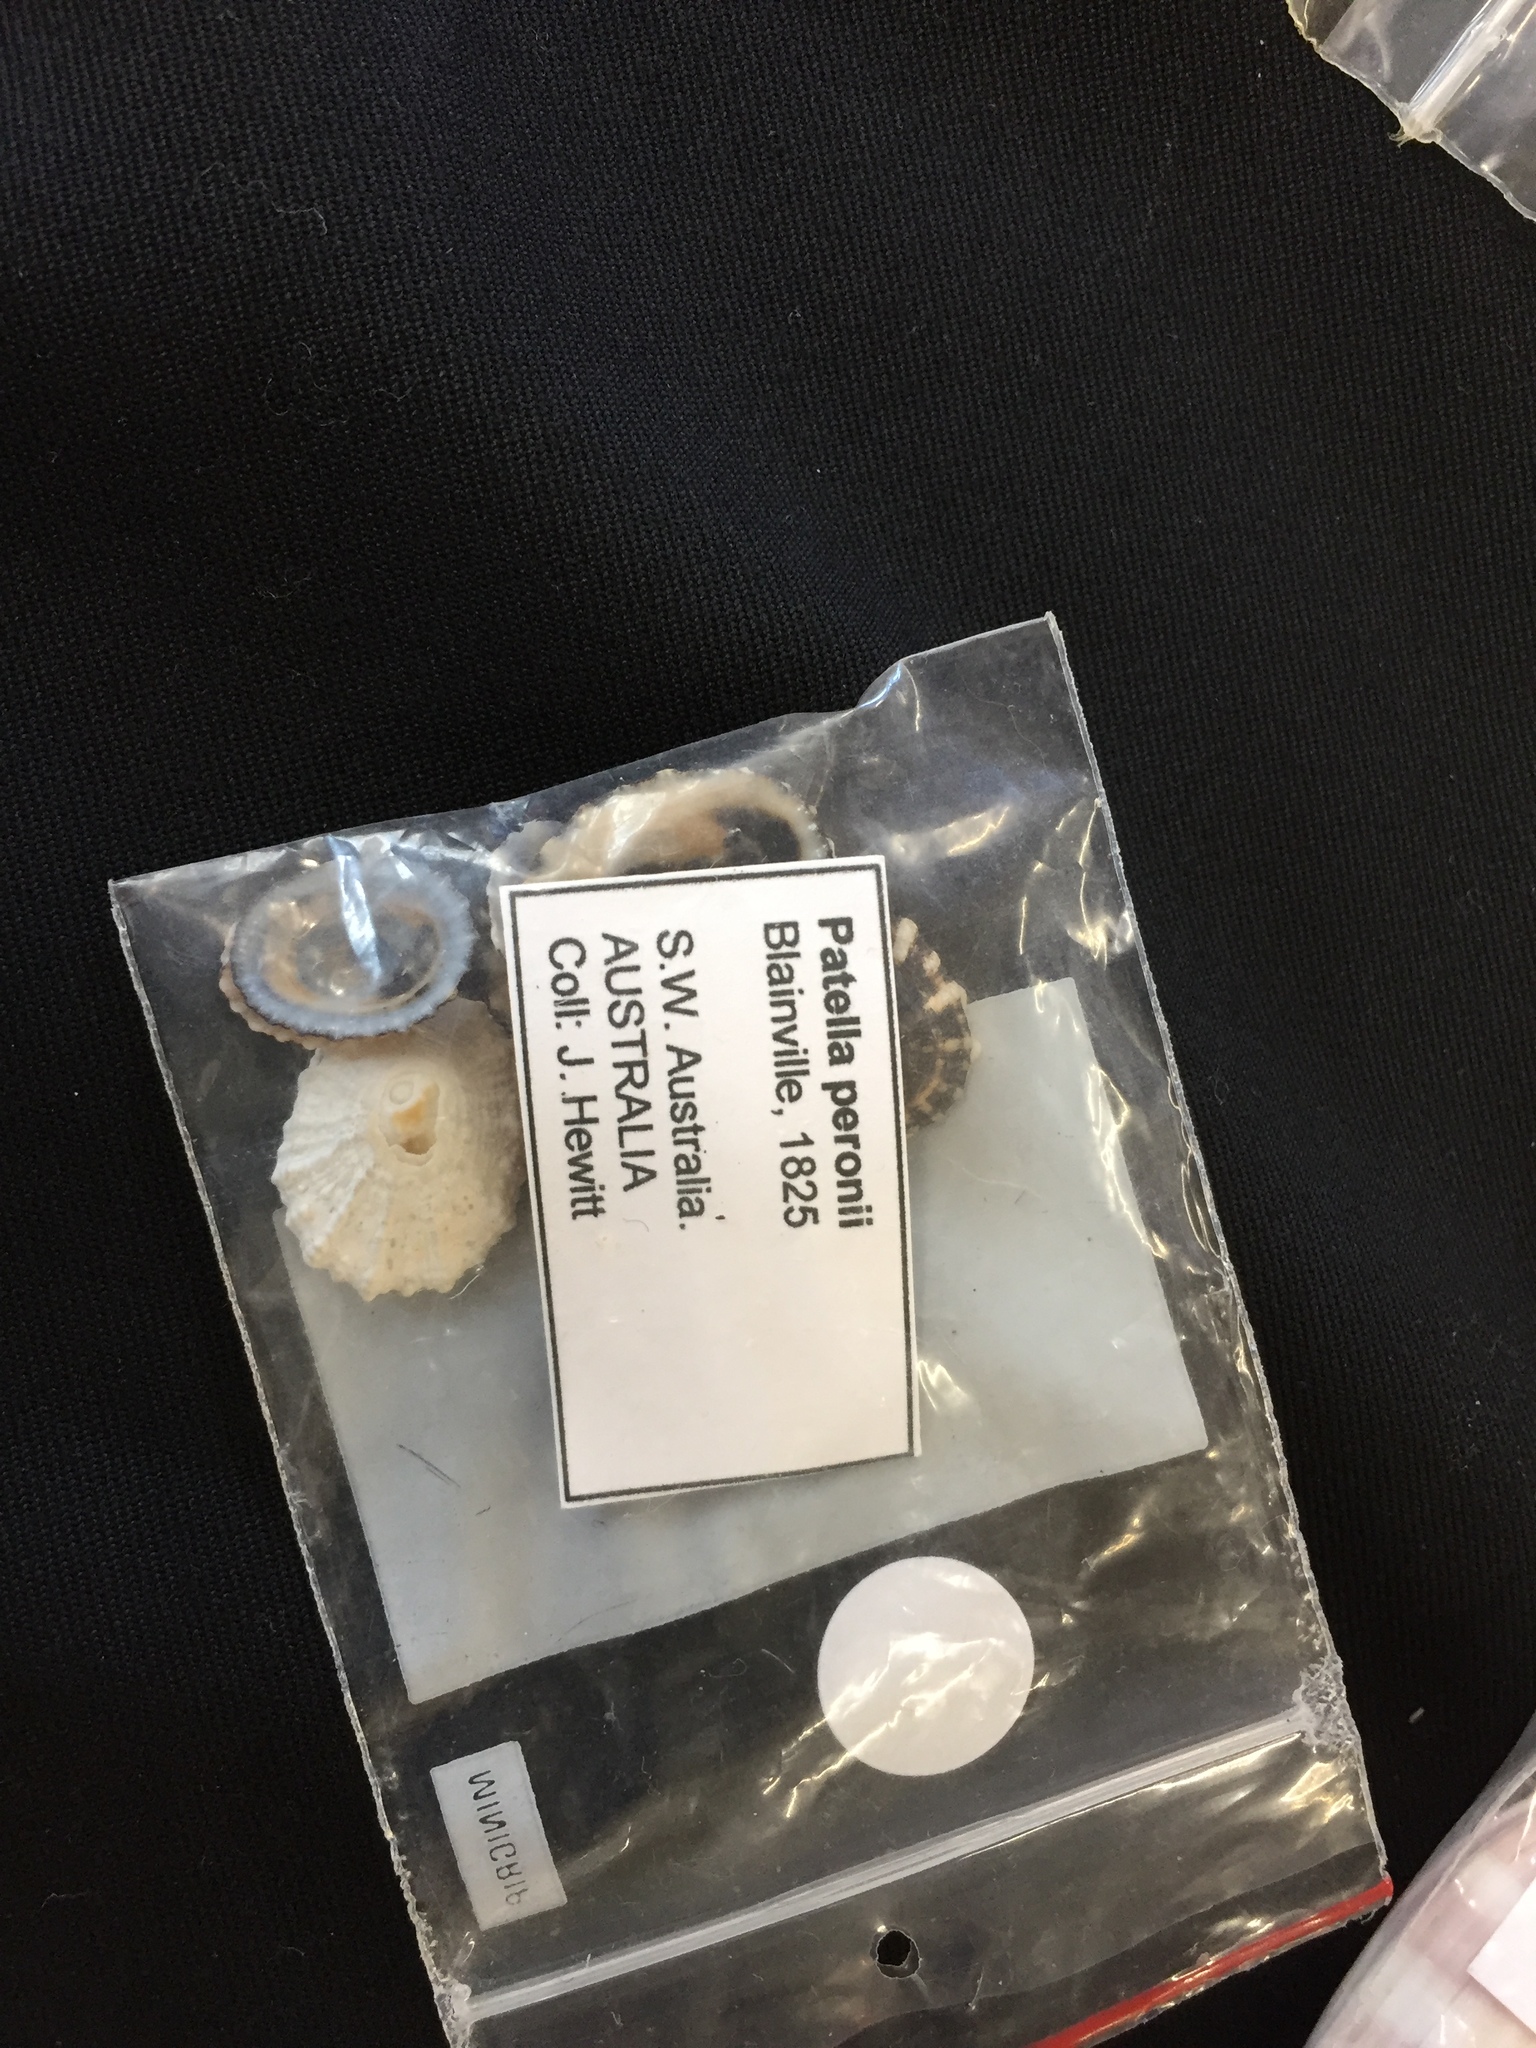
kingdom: Animalia
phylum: Mollusca
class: Gastropoda
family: Patellidae
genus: Scutellastra
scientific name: Scutellastra peronii
